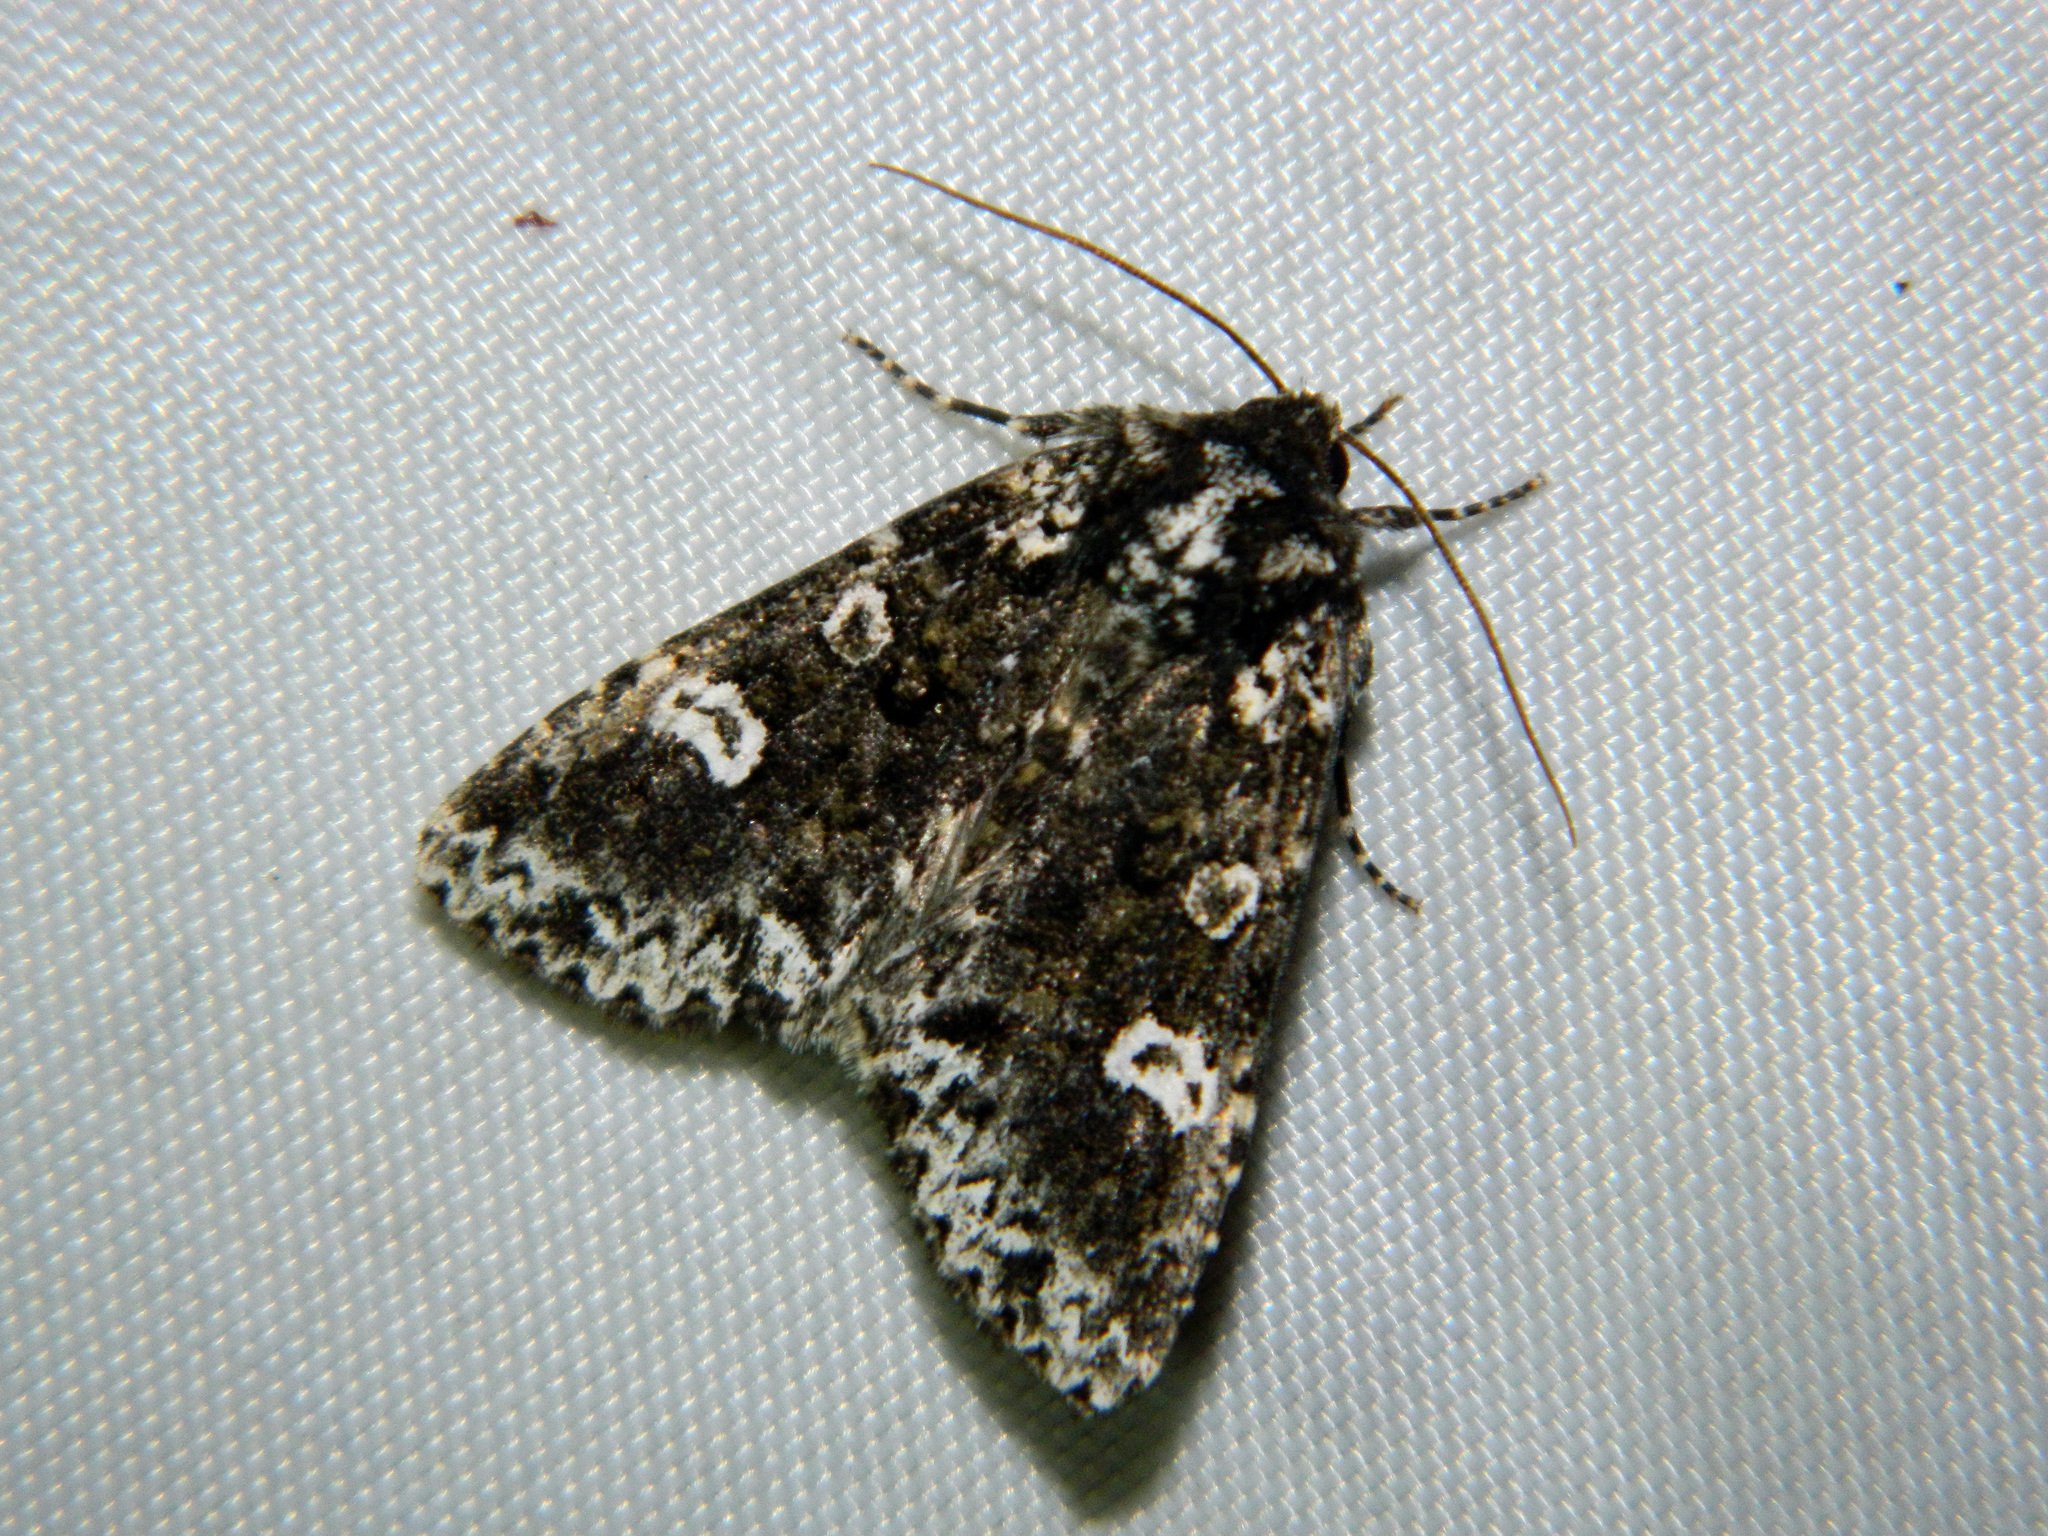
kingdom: Animalia
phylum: Arthropoda
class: Insecta
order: Lepidoptera
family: Noctuidae
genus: Melanchra
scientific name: Melanchra adjuncta
